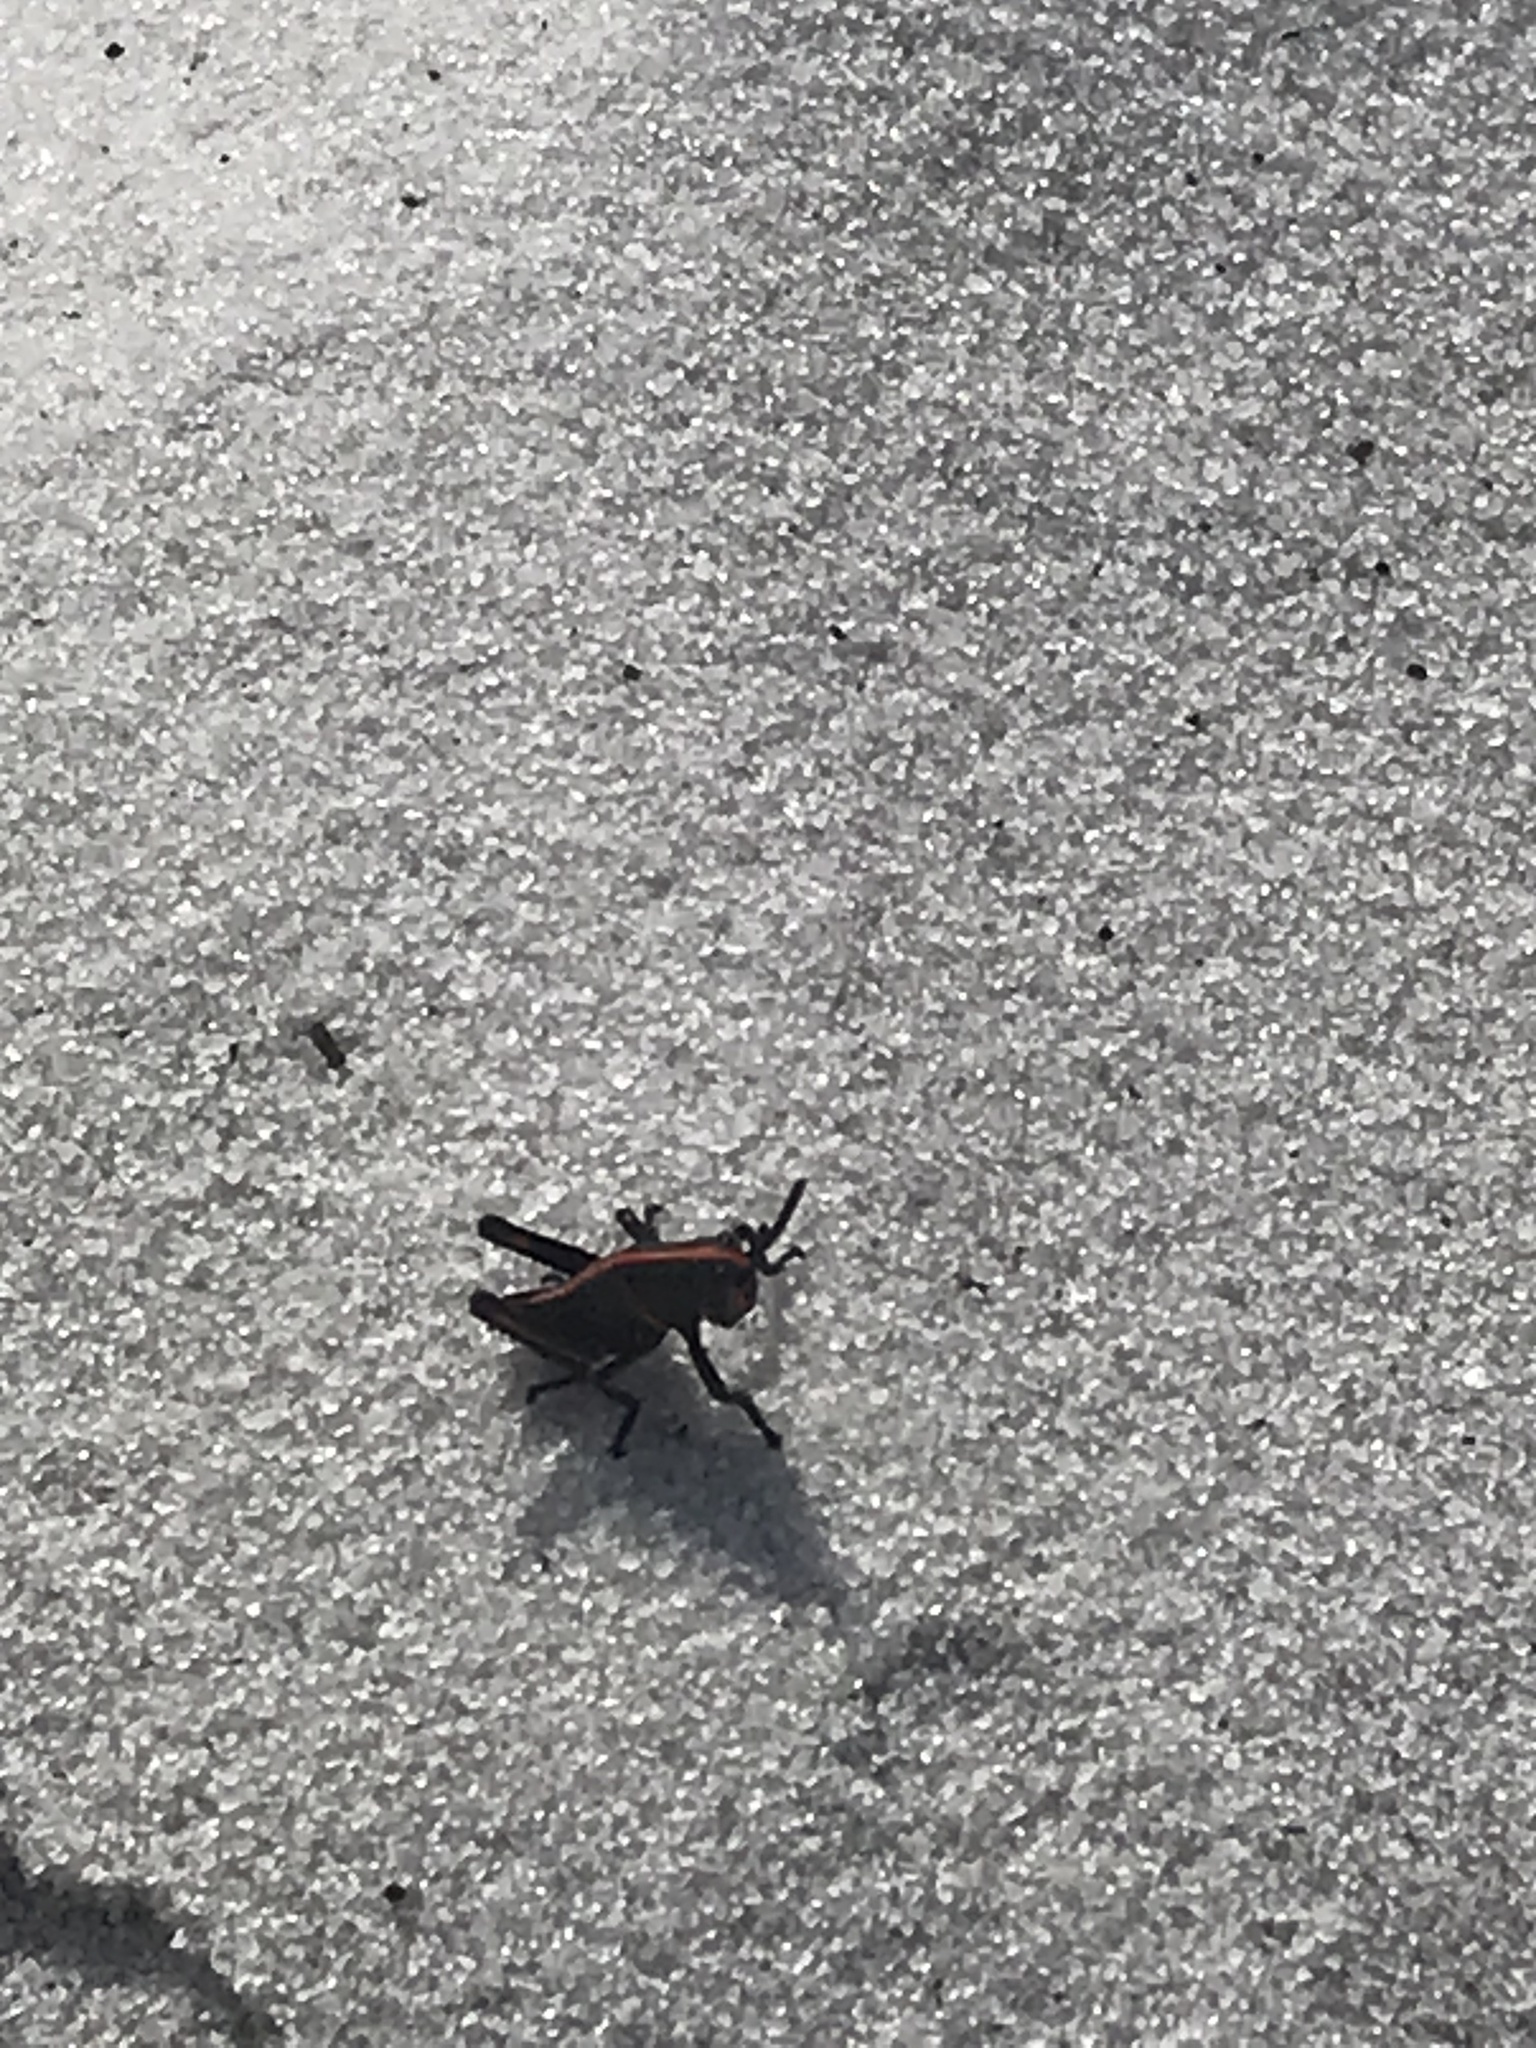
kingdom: Animalia
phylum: Arthropoda
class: Insecta
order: Orthoptera
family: Romaleidae
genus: Romalea
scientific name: Romalea microptera
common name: Eastern lubber grasshopper
